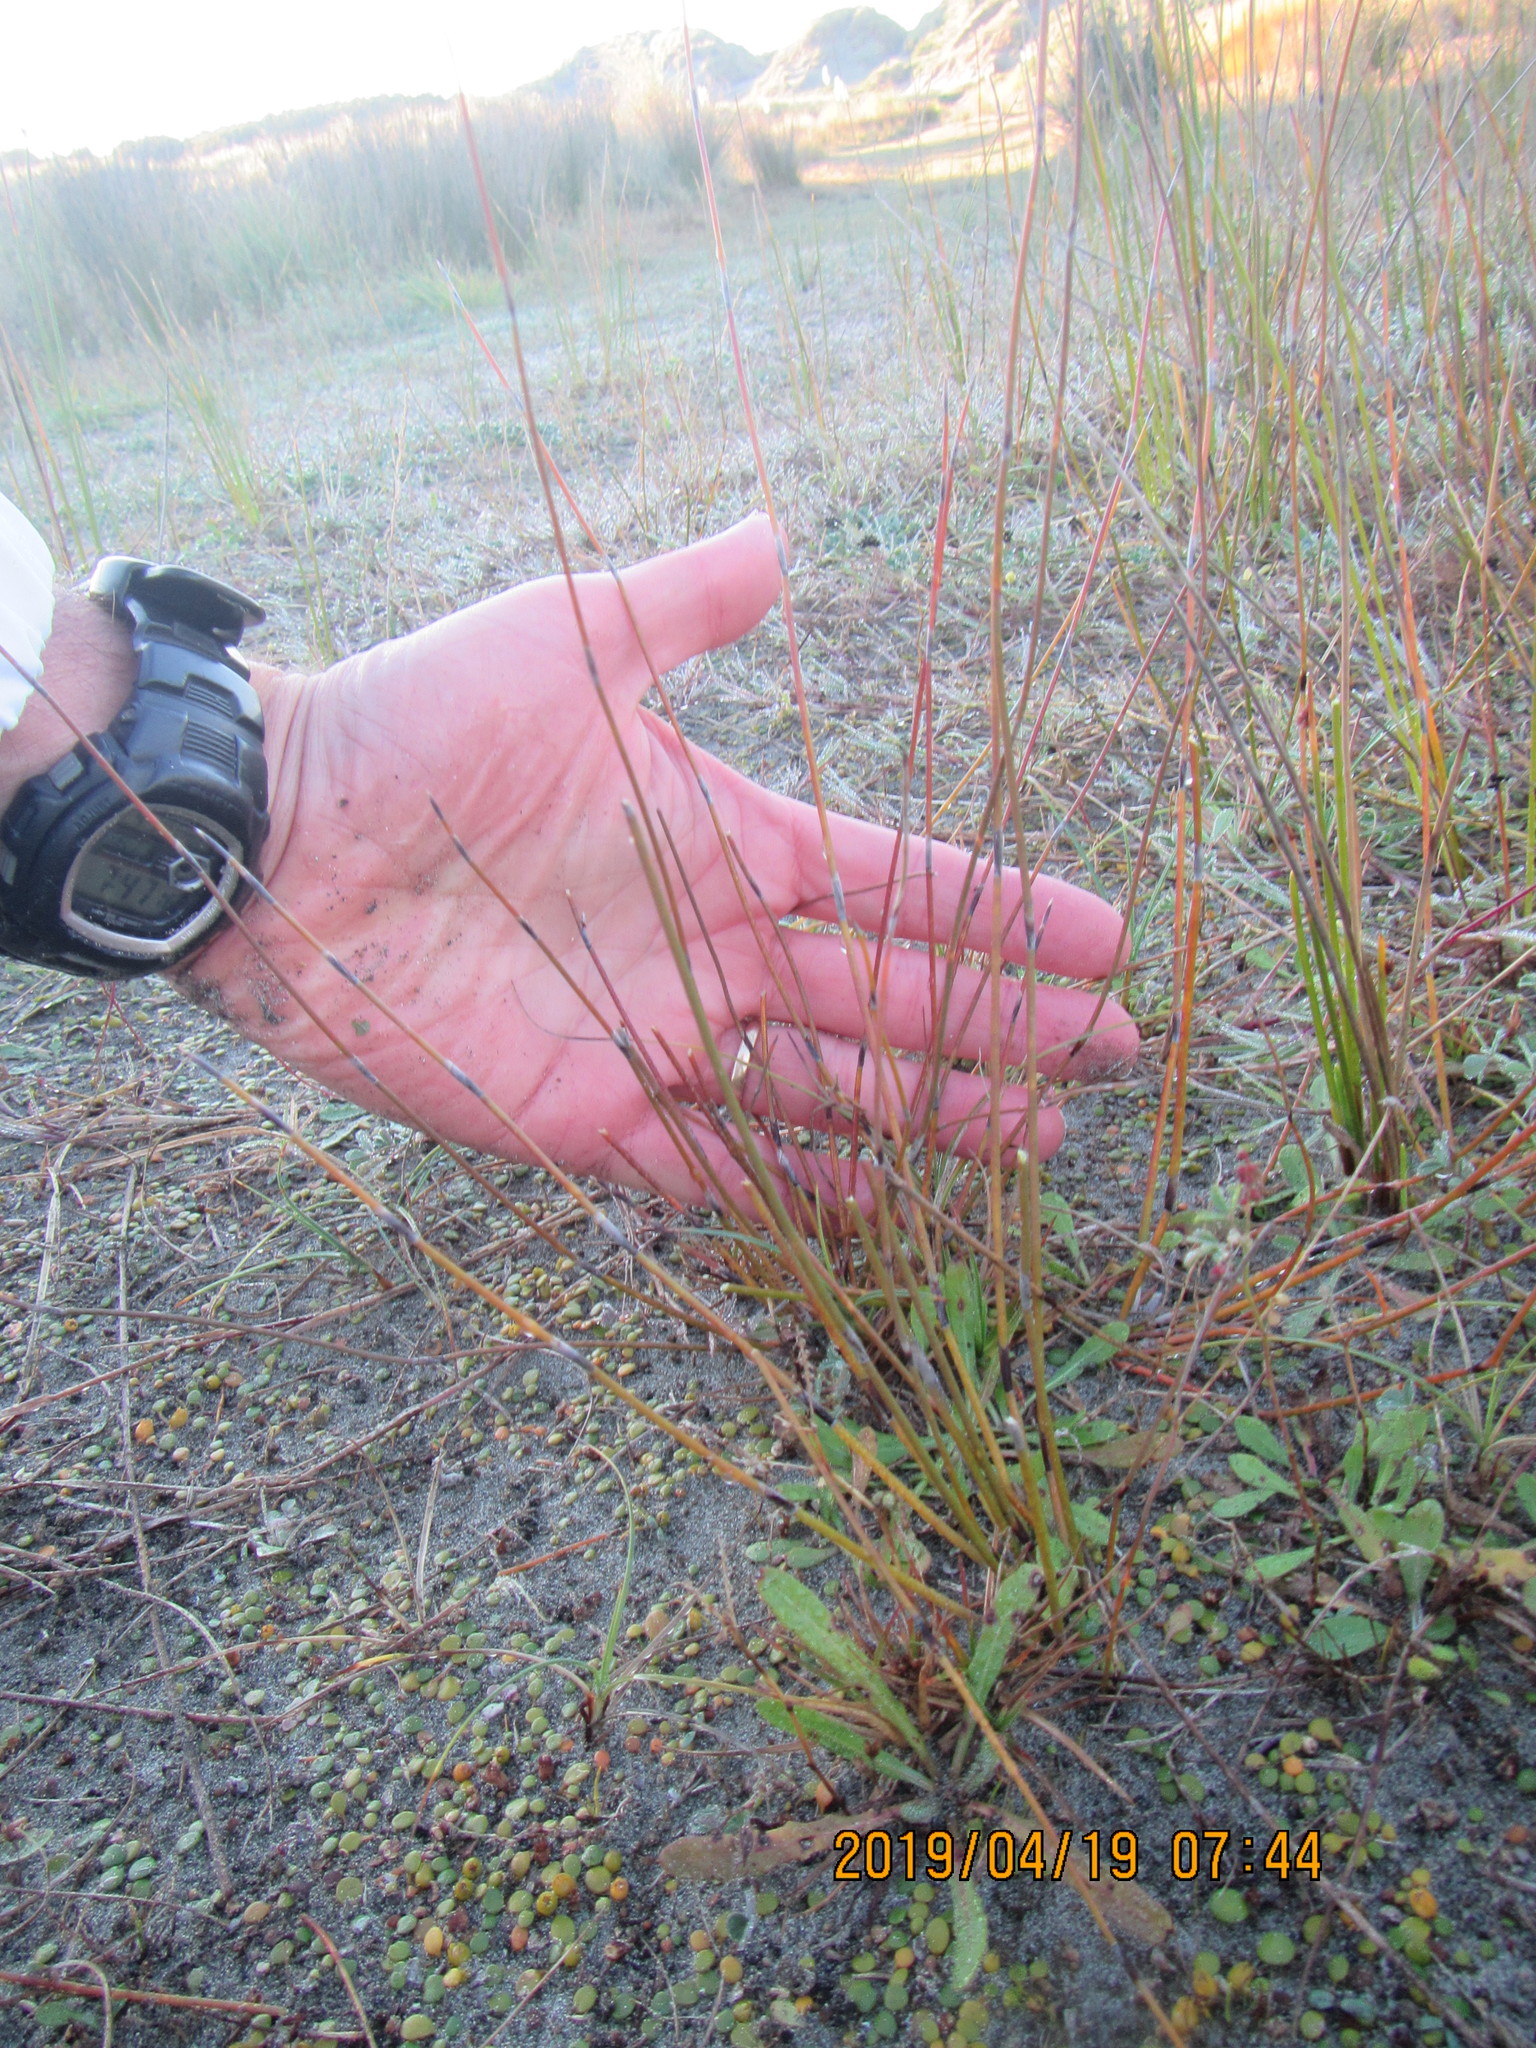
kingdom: Plantae
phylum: Tracheophyta
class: Liliopsida
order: Poales
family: Restionaceae
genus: Apodasmia
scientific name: Apodasmia similis
